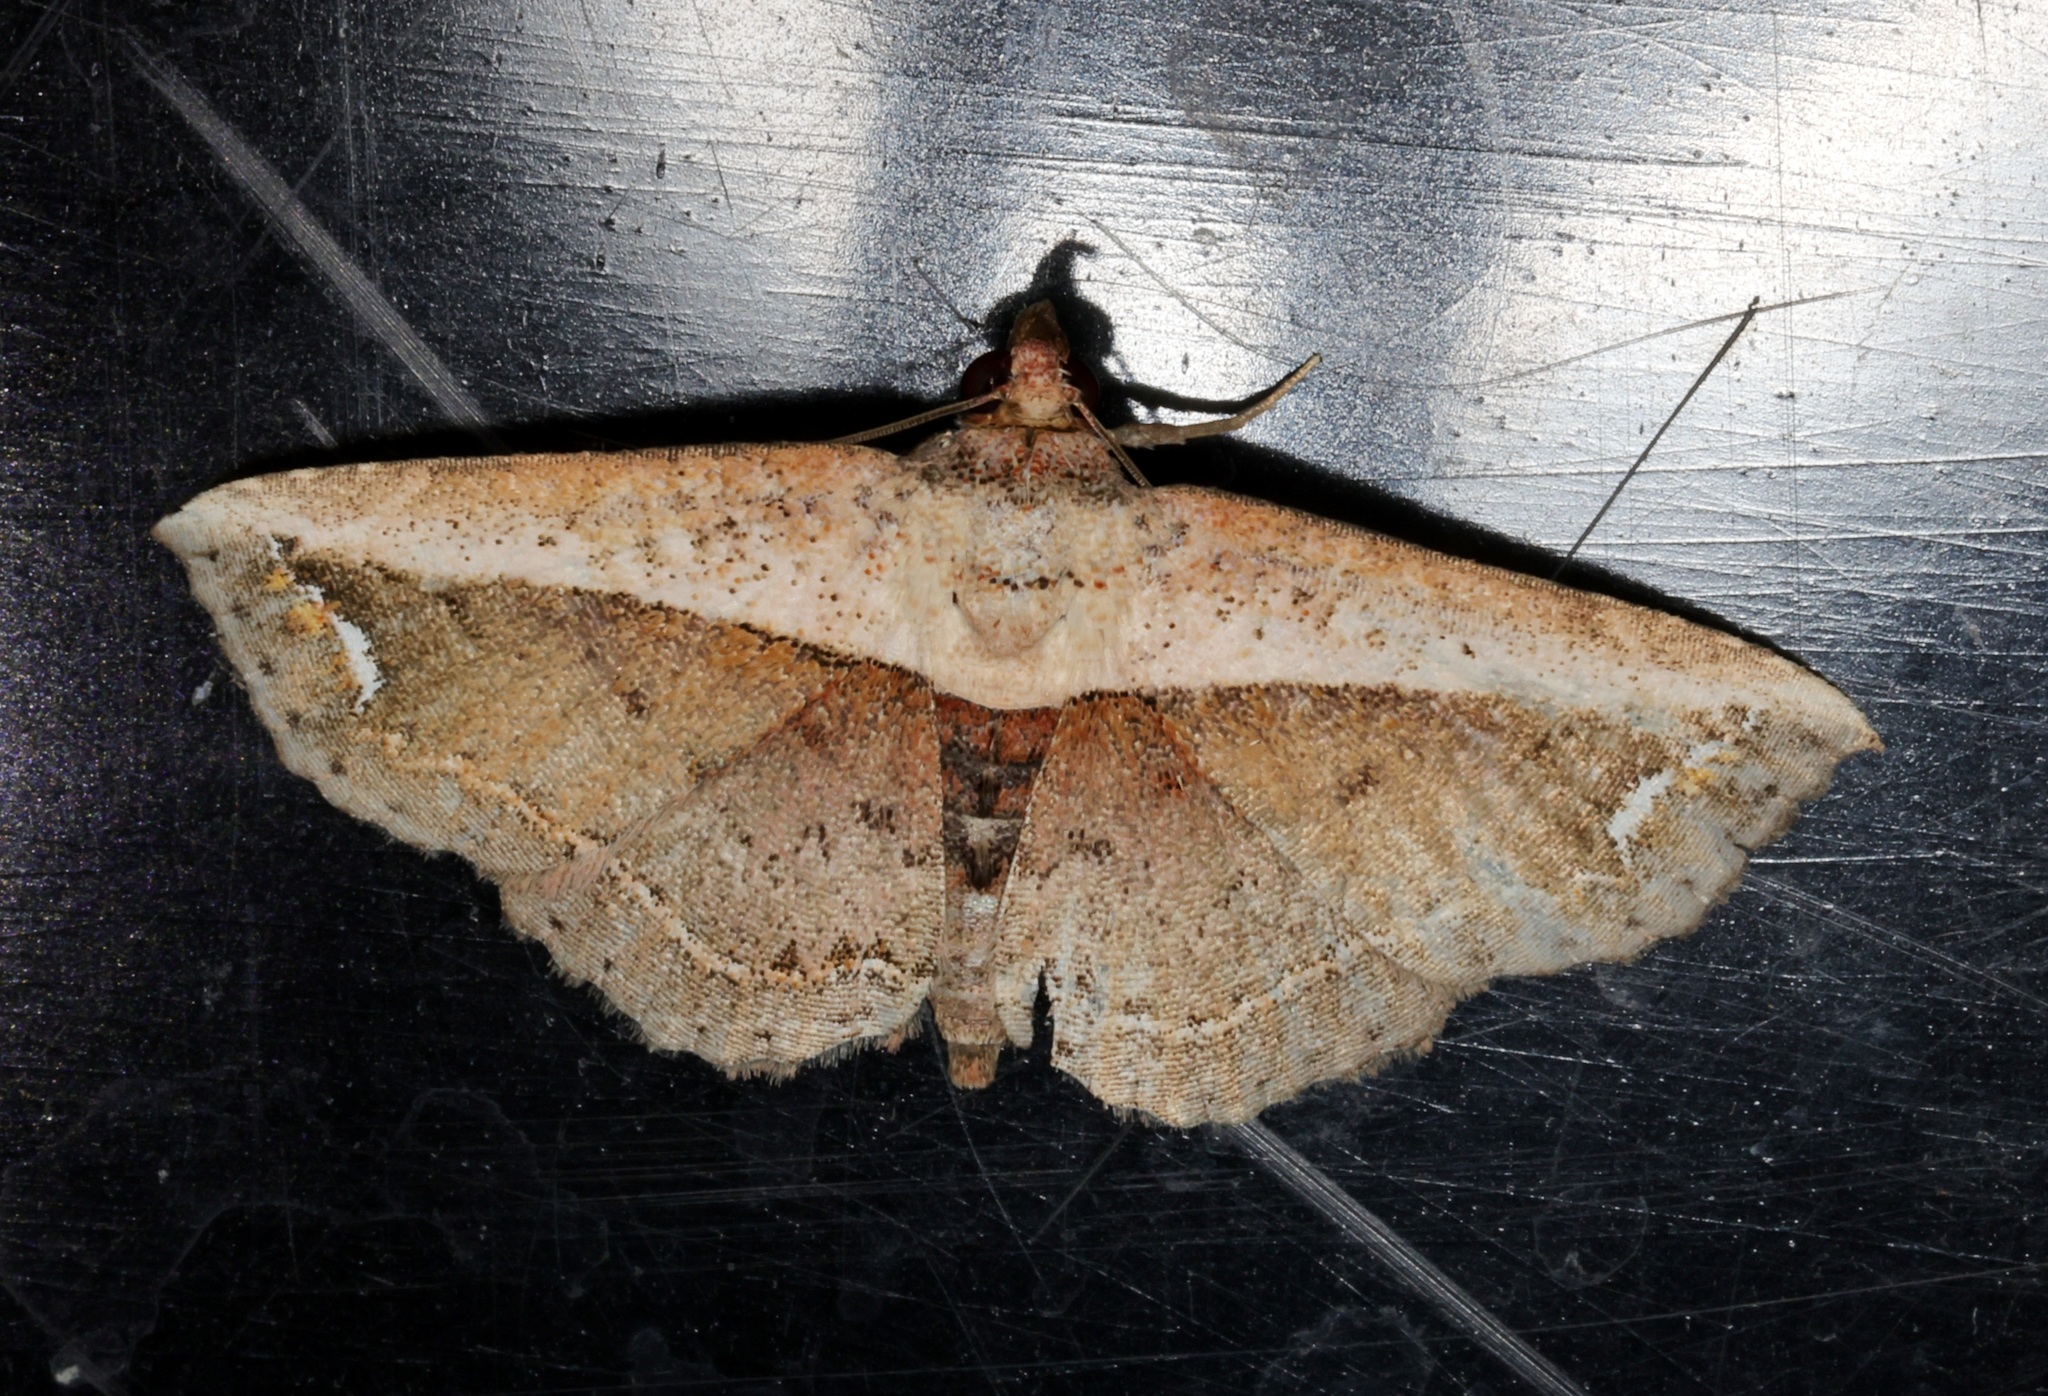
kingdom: Animalia
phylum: Arthropoda
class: Insecta
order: Lepidoptera
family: Noctuidae
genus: Eugnathia
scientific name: Eugnathia lunifera
